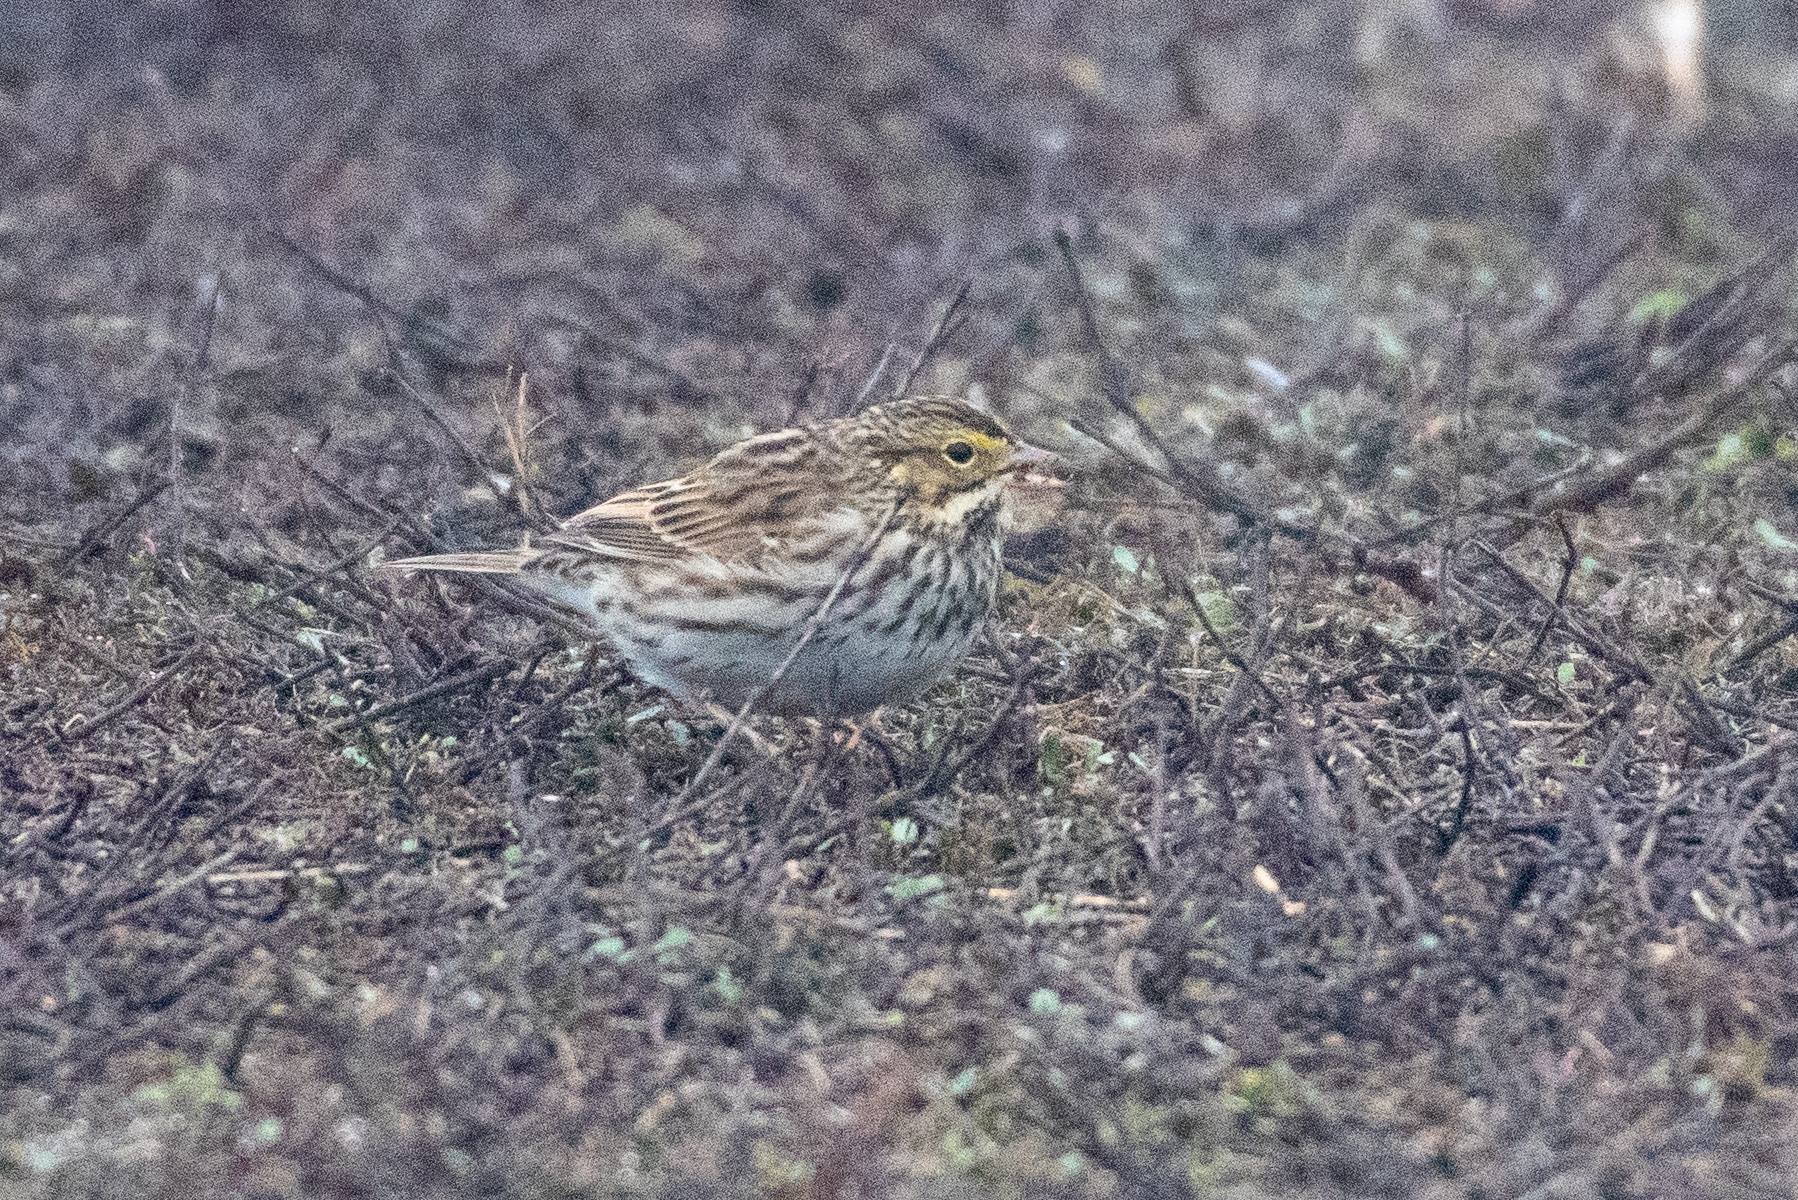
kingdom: Animalia
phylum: Chordata
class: Aves
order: Passeriformes
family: Passerellidae
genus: Passerculus
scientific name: Passerculus sandwichensis
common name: Savannah sparrow
